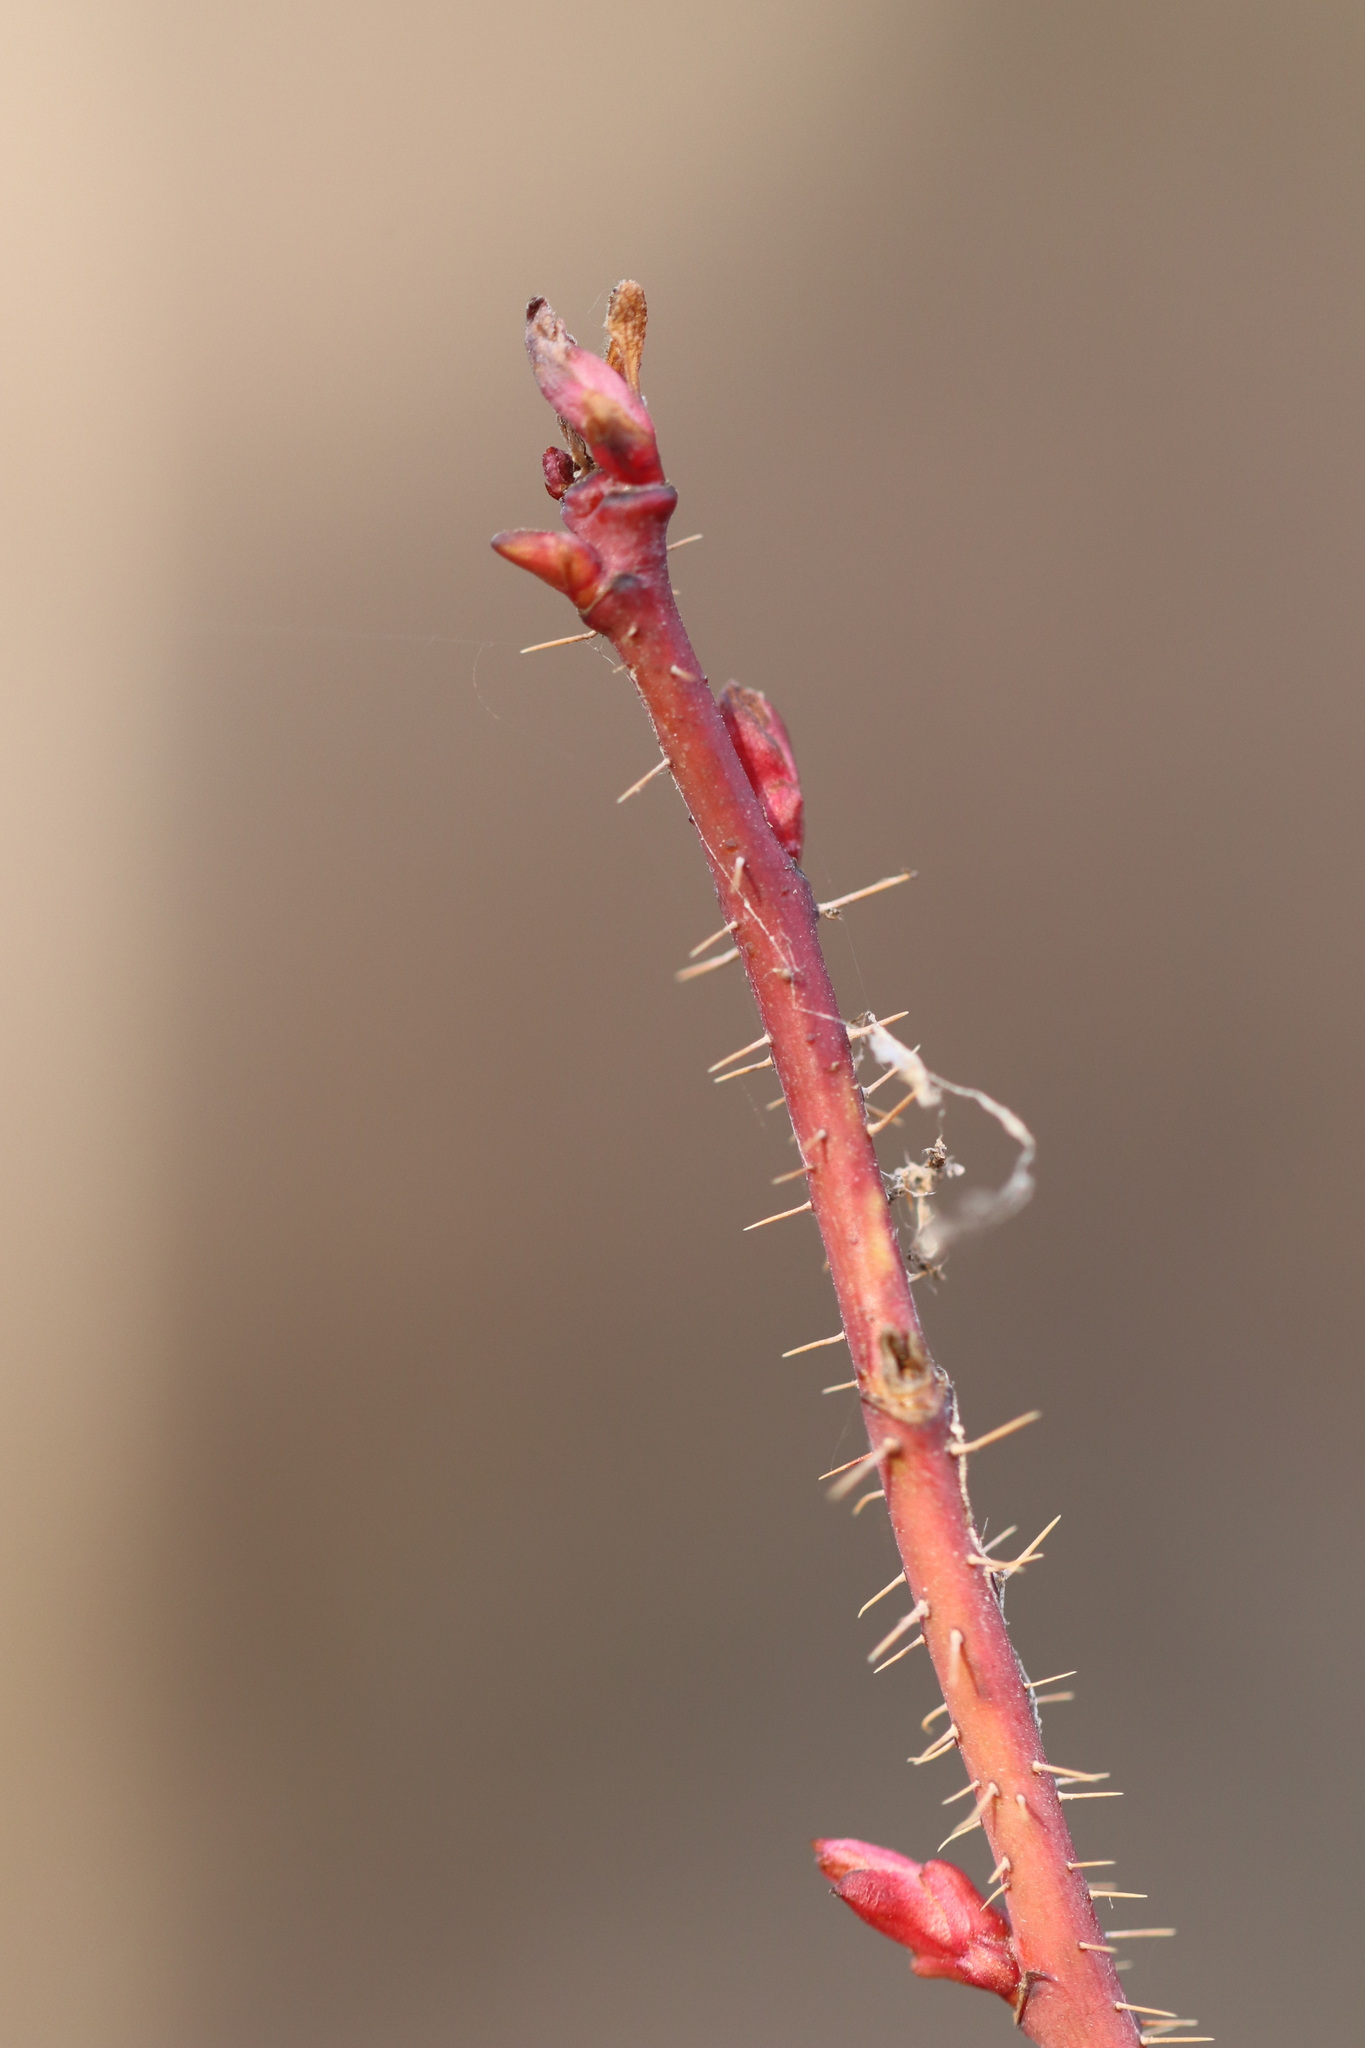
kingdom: Plantae
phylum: Tracheophyta
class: Magnoliopsida
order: Rosales
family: Rosaceae
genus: Rosa
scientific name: Rosa acicularis
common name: Prickly rose
